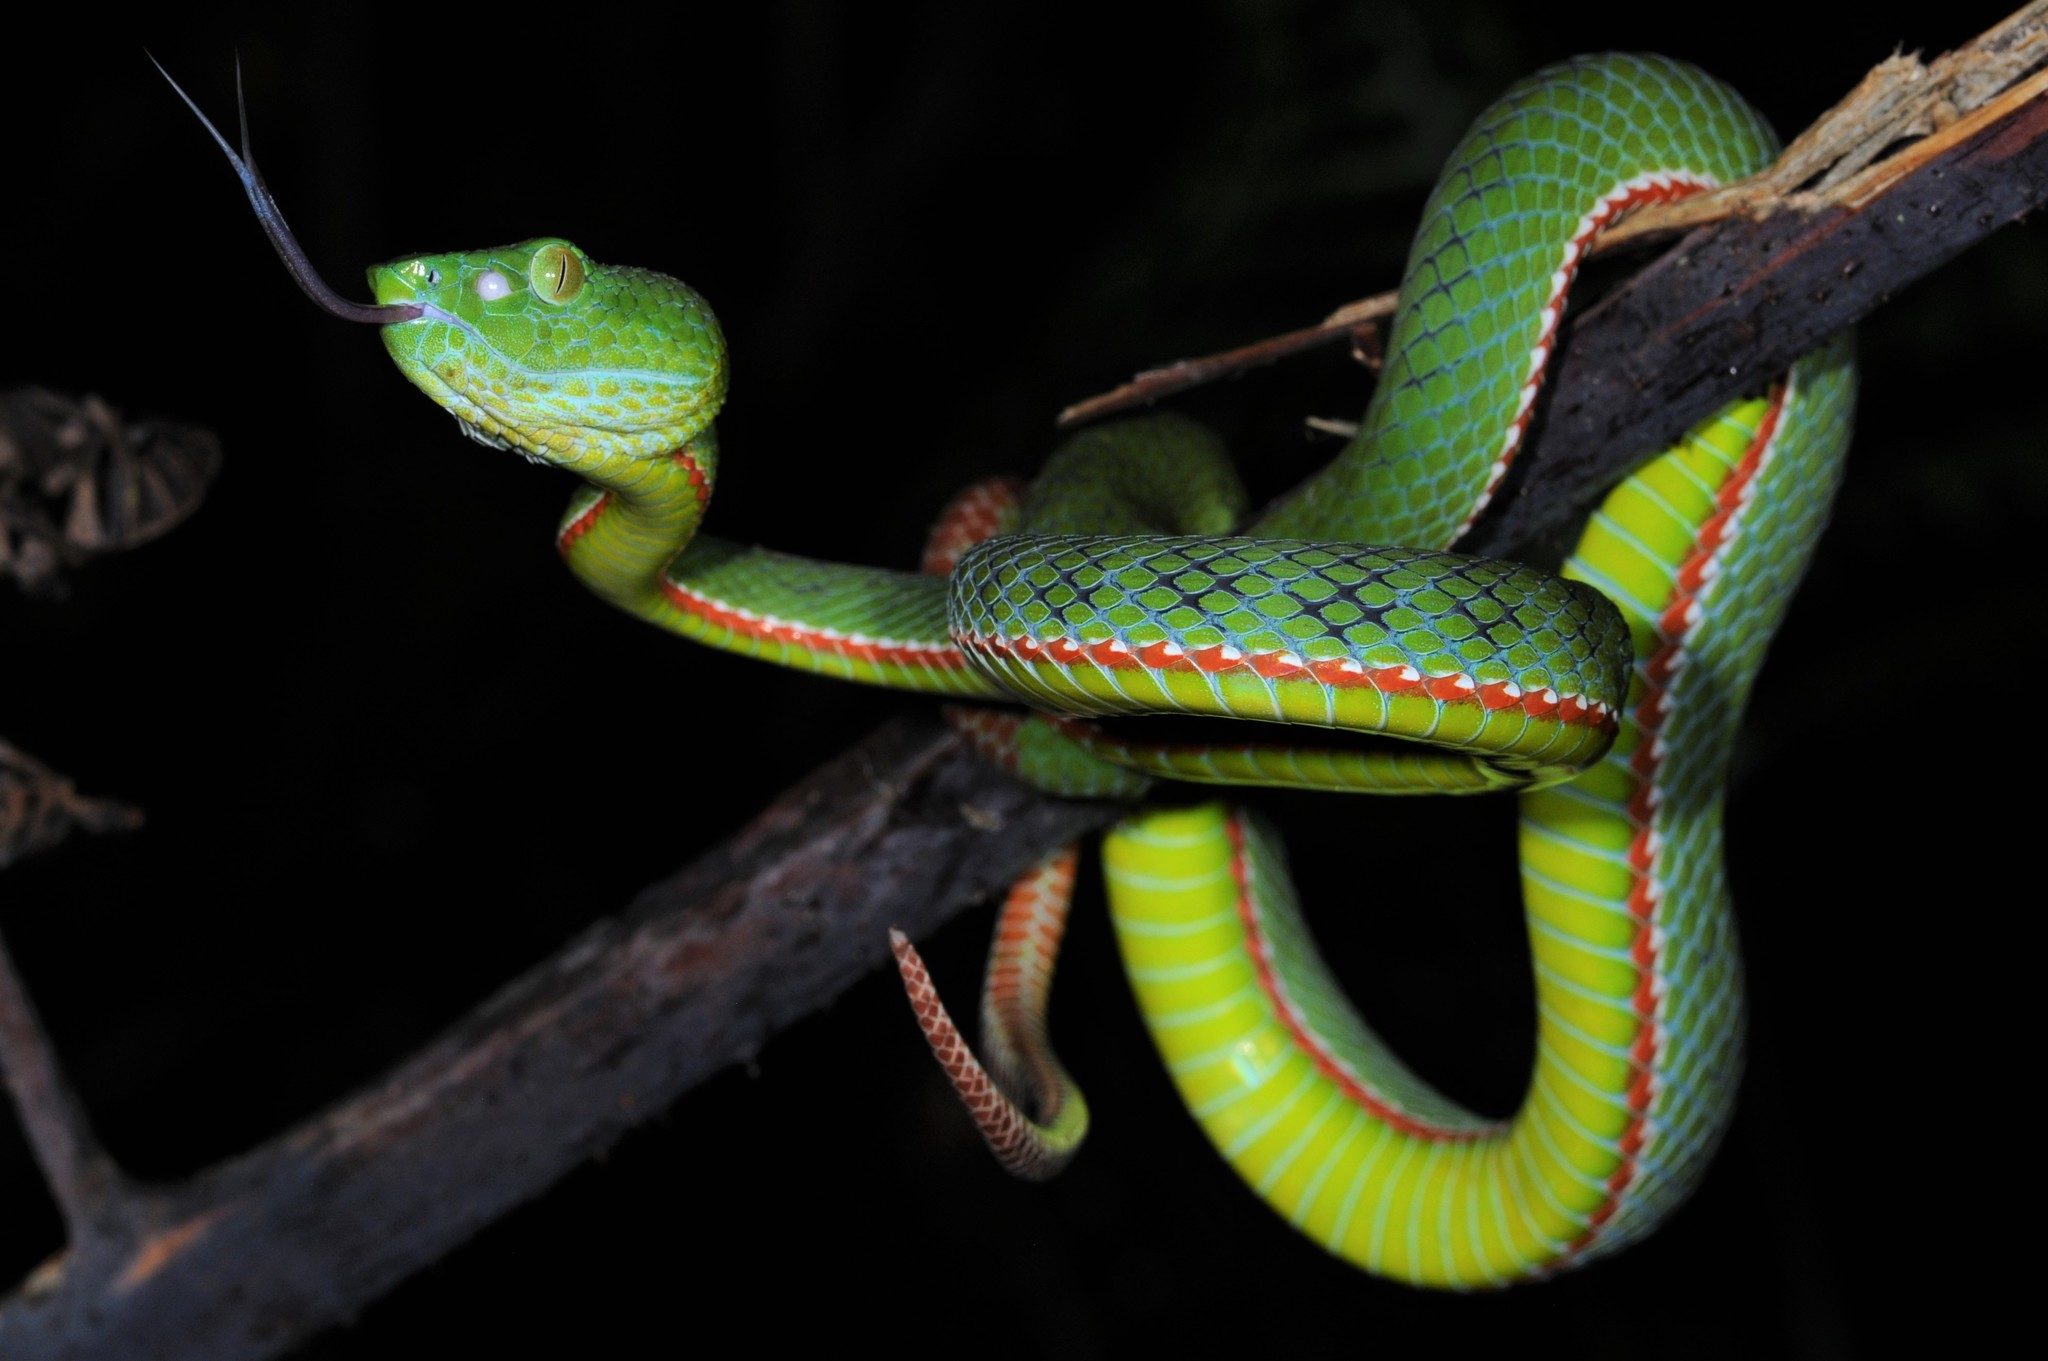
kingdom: Animalia
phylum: Chordata
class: Squamata
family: Viperidae
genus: Trimeresurus
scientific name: Trimeresurus sabahi
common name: Sabah bamboo pit viper
